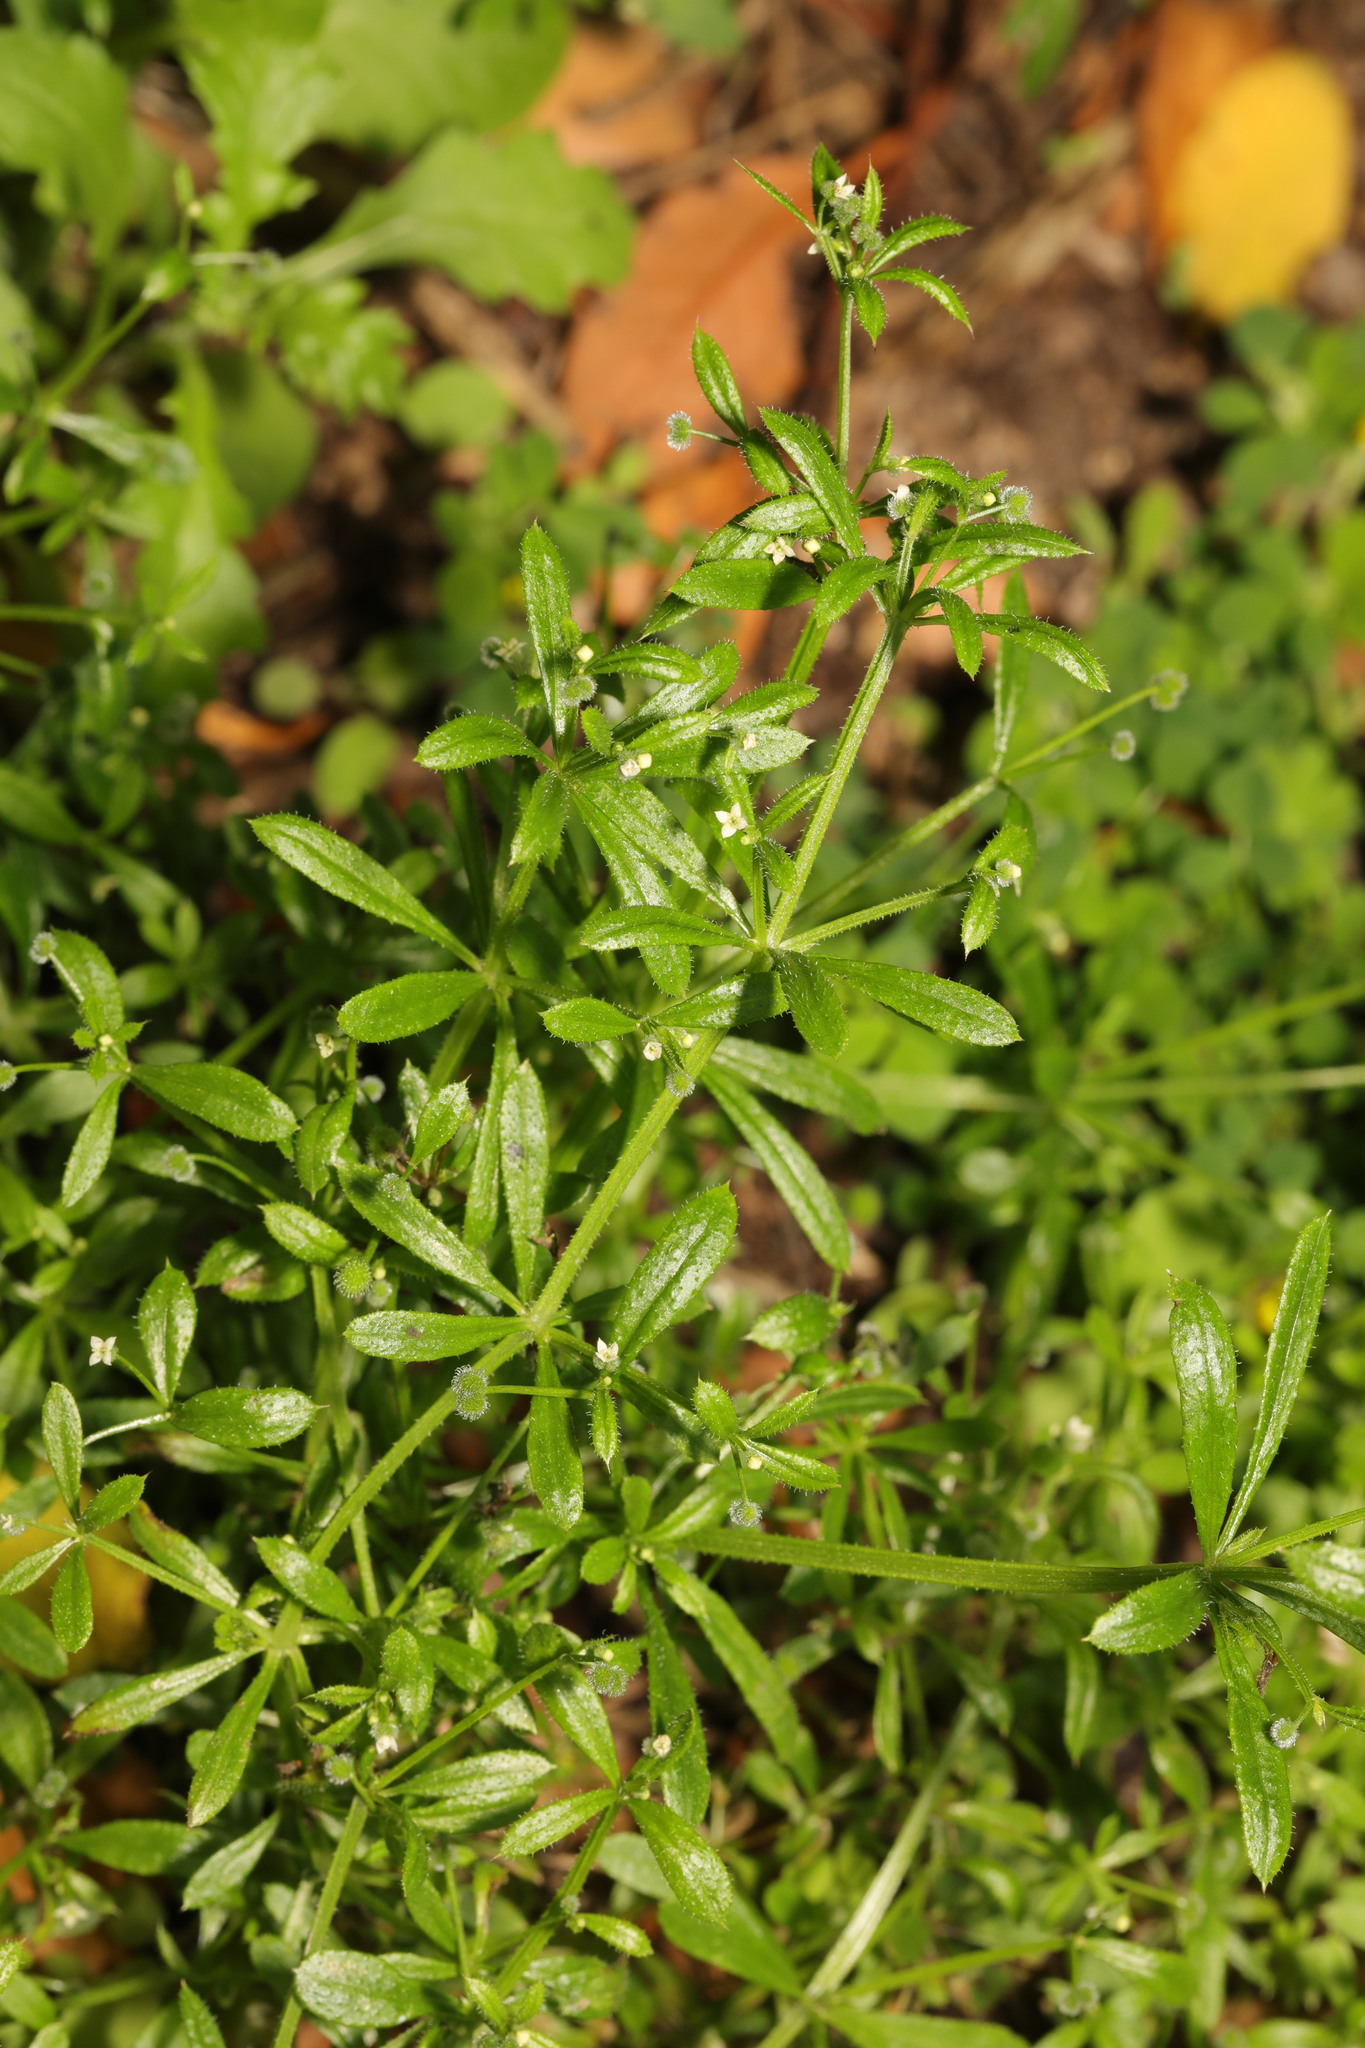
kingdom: Plantae
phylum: Tracheophyta
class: Magnoliopsida
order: Gentianales
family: Rubiaceae
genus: Galium
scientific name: Galium aparine
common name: Cleavers
